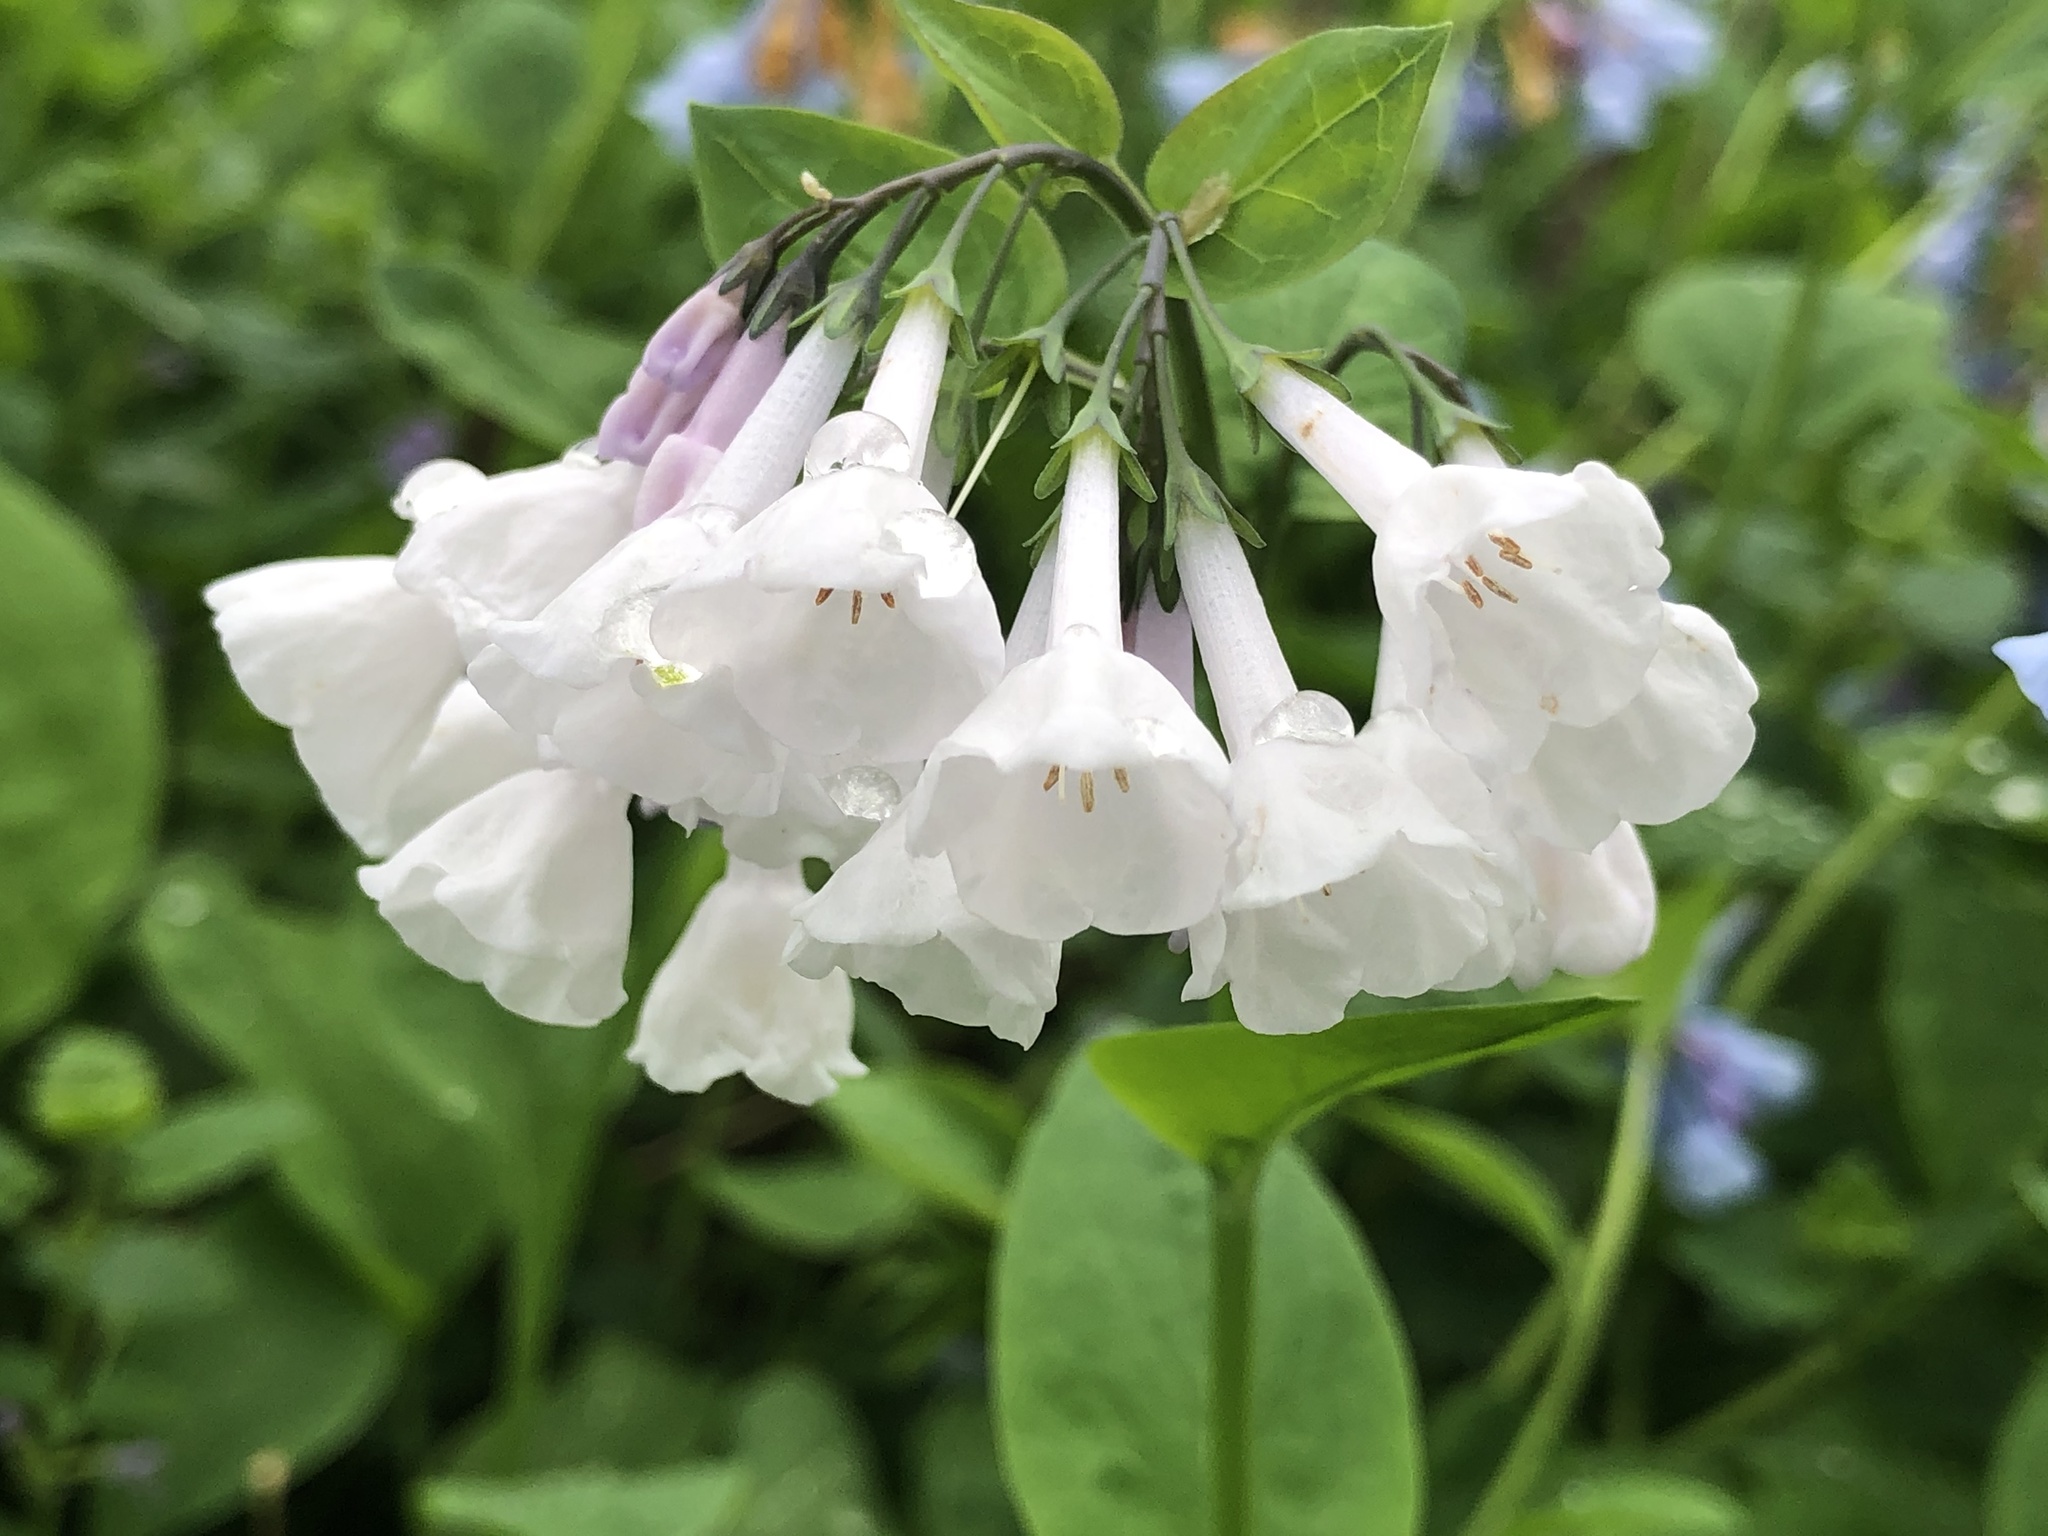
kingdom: Plantae
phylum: Tracheophyta
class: Magnoliopsida
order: Boraginales
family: Boraginaceae
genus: Mertensia
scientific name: Mertensia virginica
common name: Virginia bluebells
